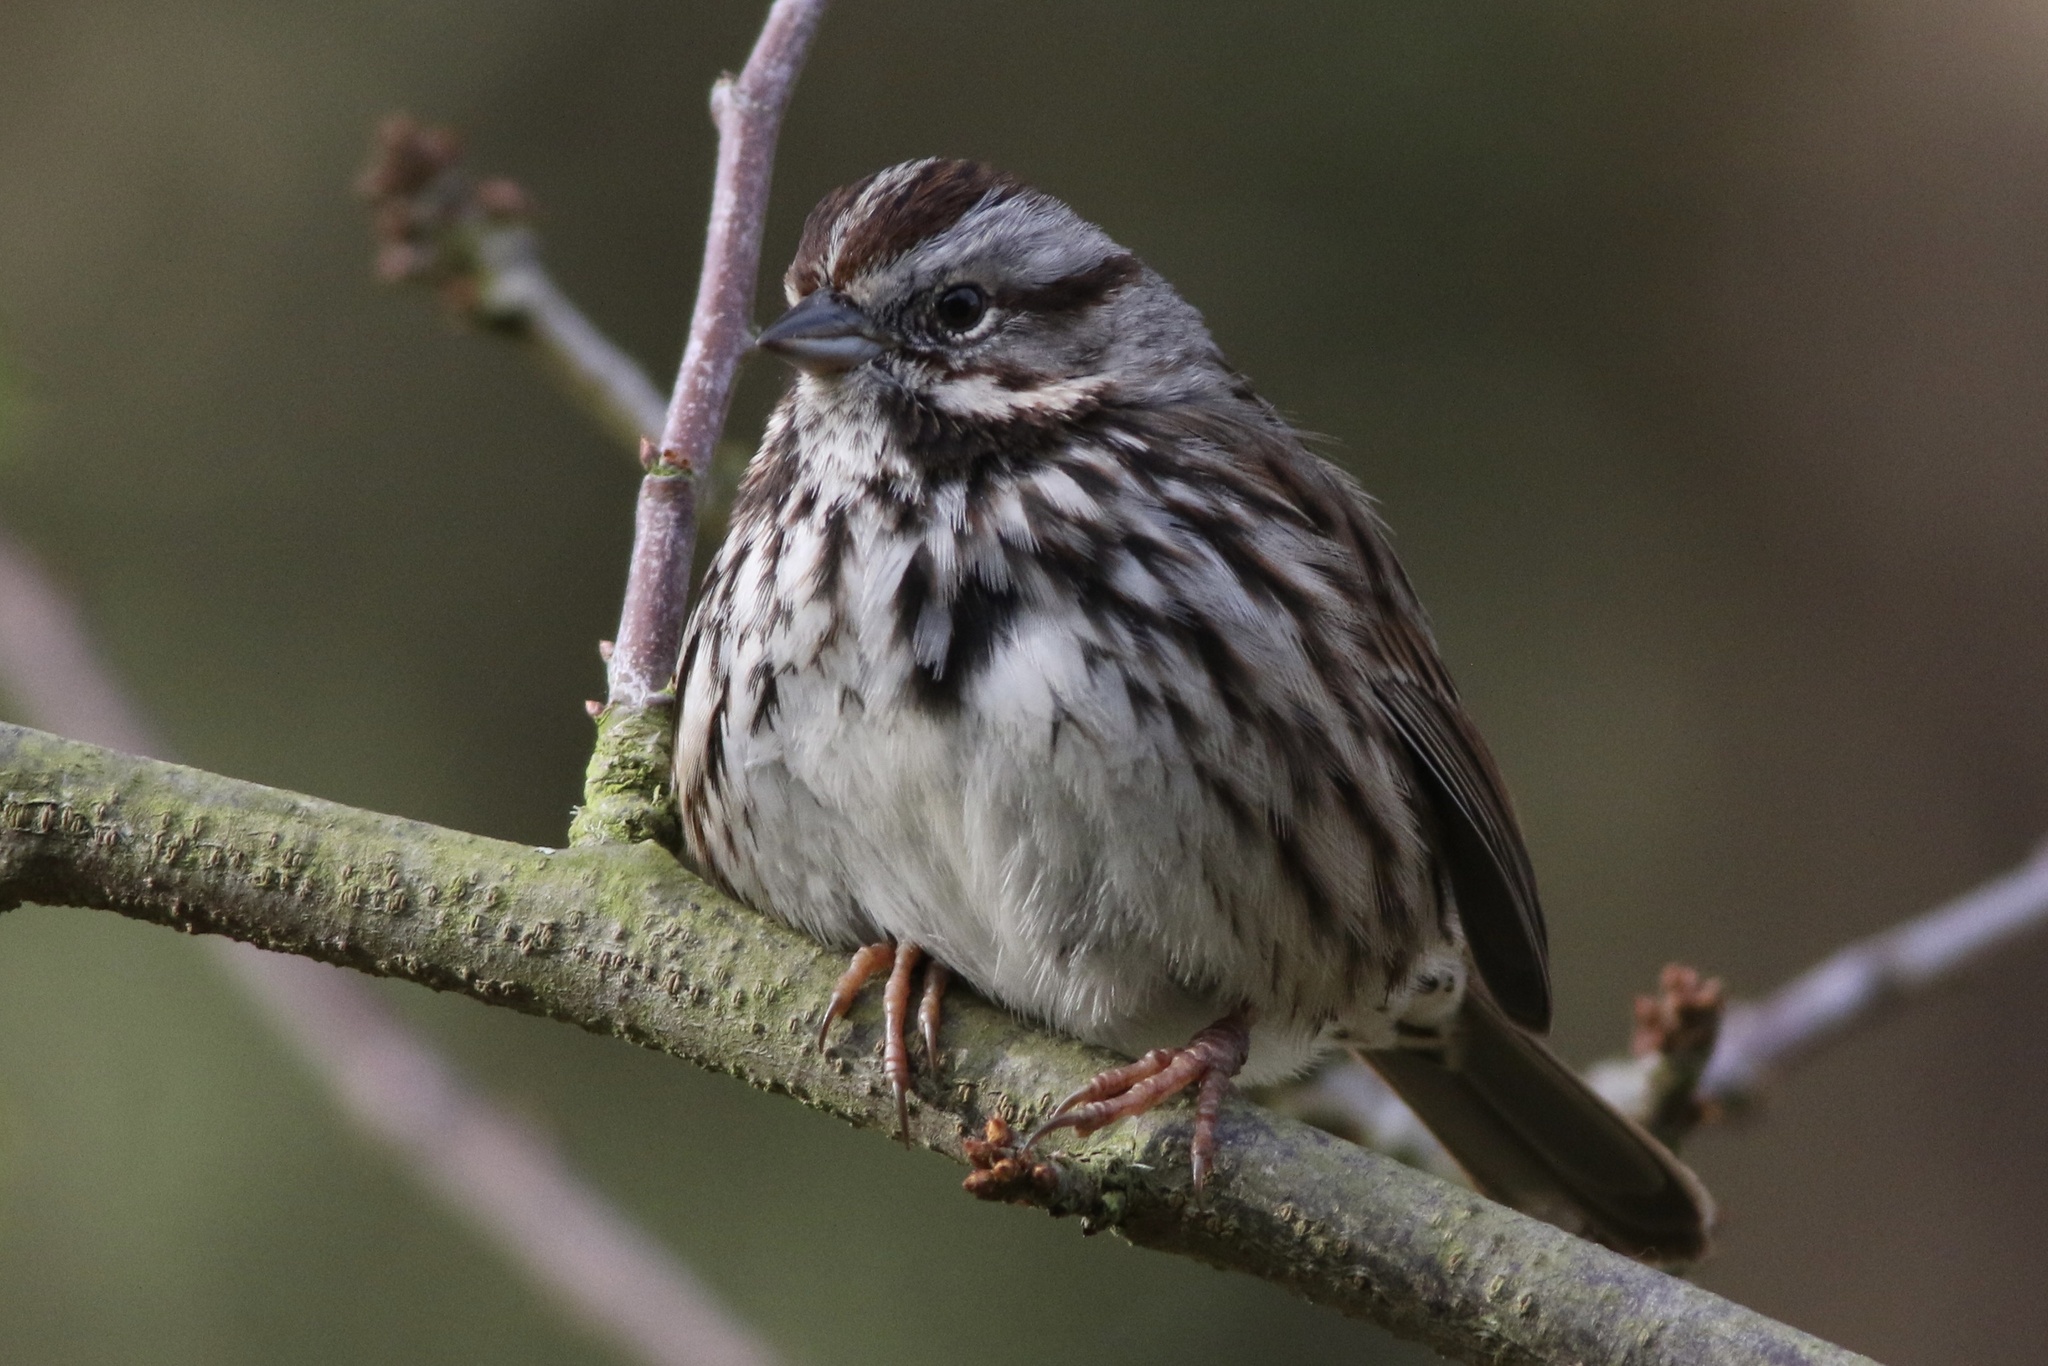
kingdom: Animalia
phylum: Chordata
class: Aves
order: Passeriformes
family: Passerellidae
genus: Melospiza
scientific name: Melospiza melodia
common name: Song sparrow
